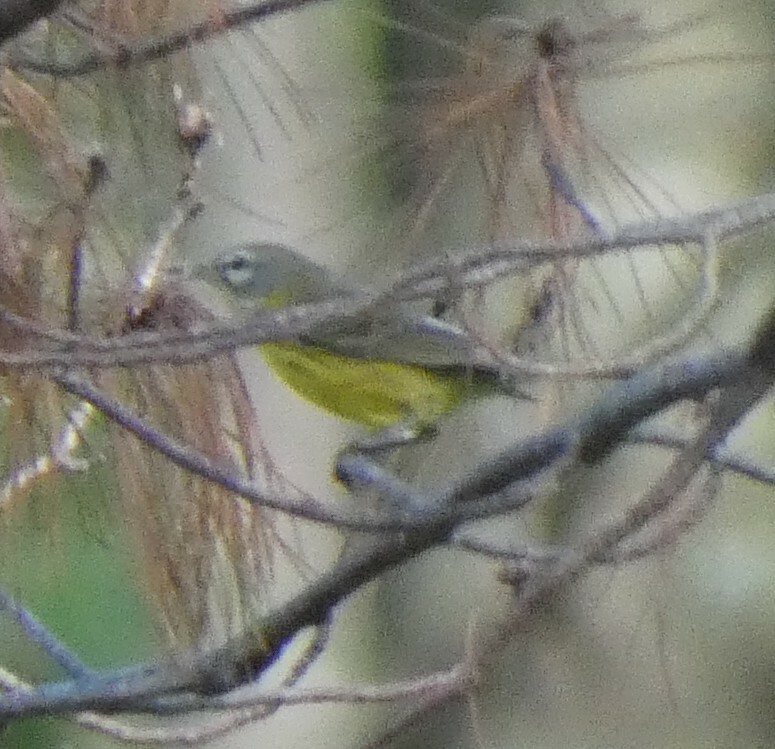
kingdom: Animalia
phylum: Chordata
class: Aves
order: Passeriformes
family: Parulidae
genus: Setophaga
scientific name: Setophaga discolor
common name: Prairie warbler
